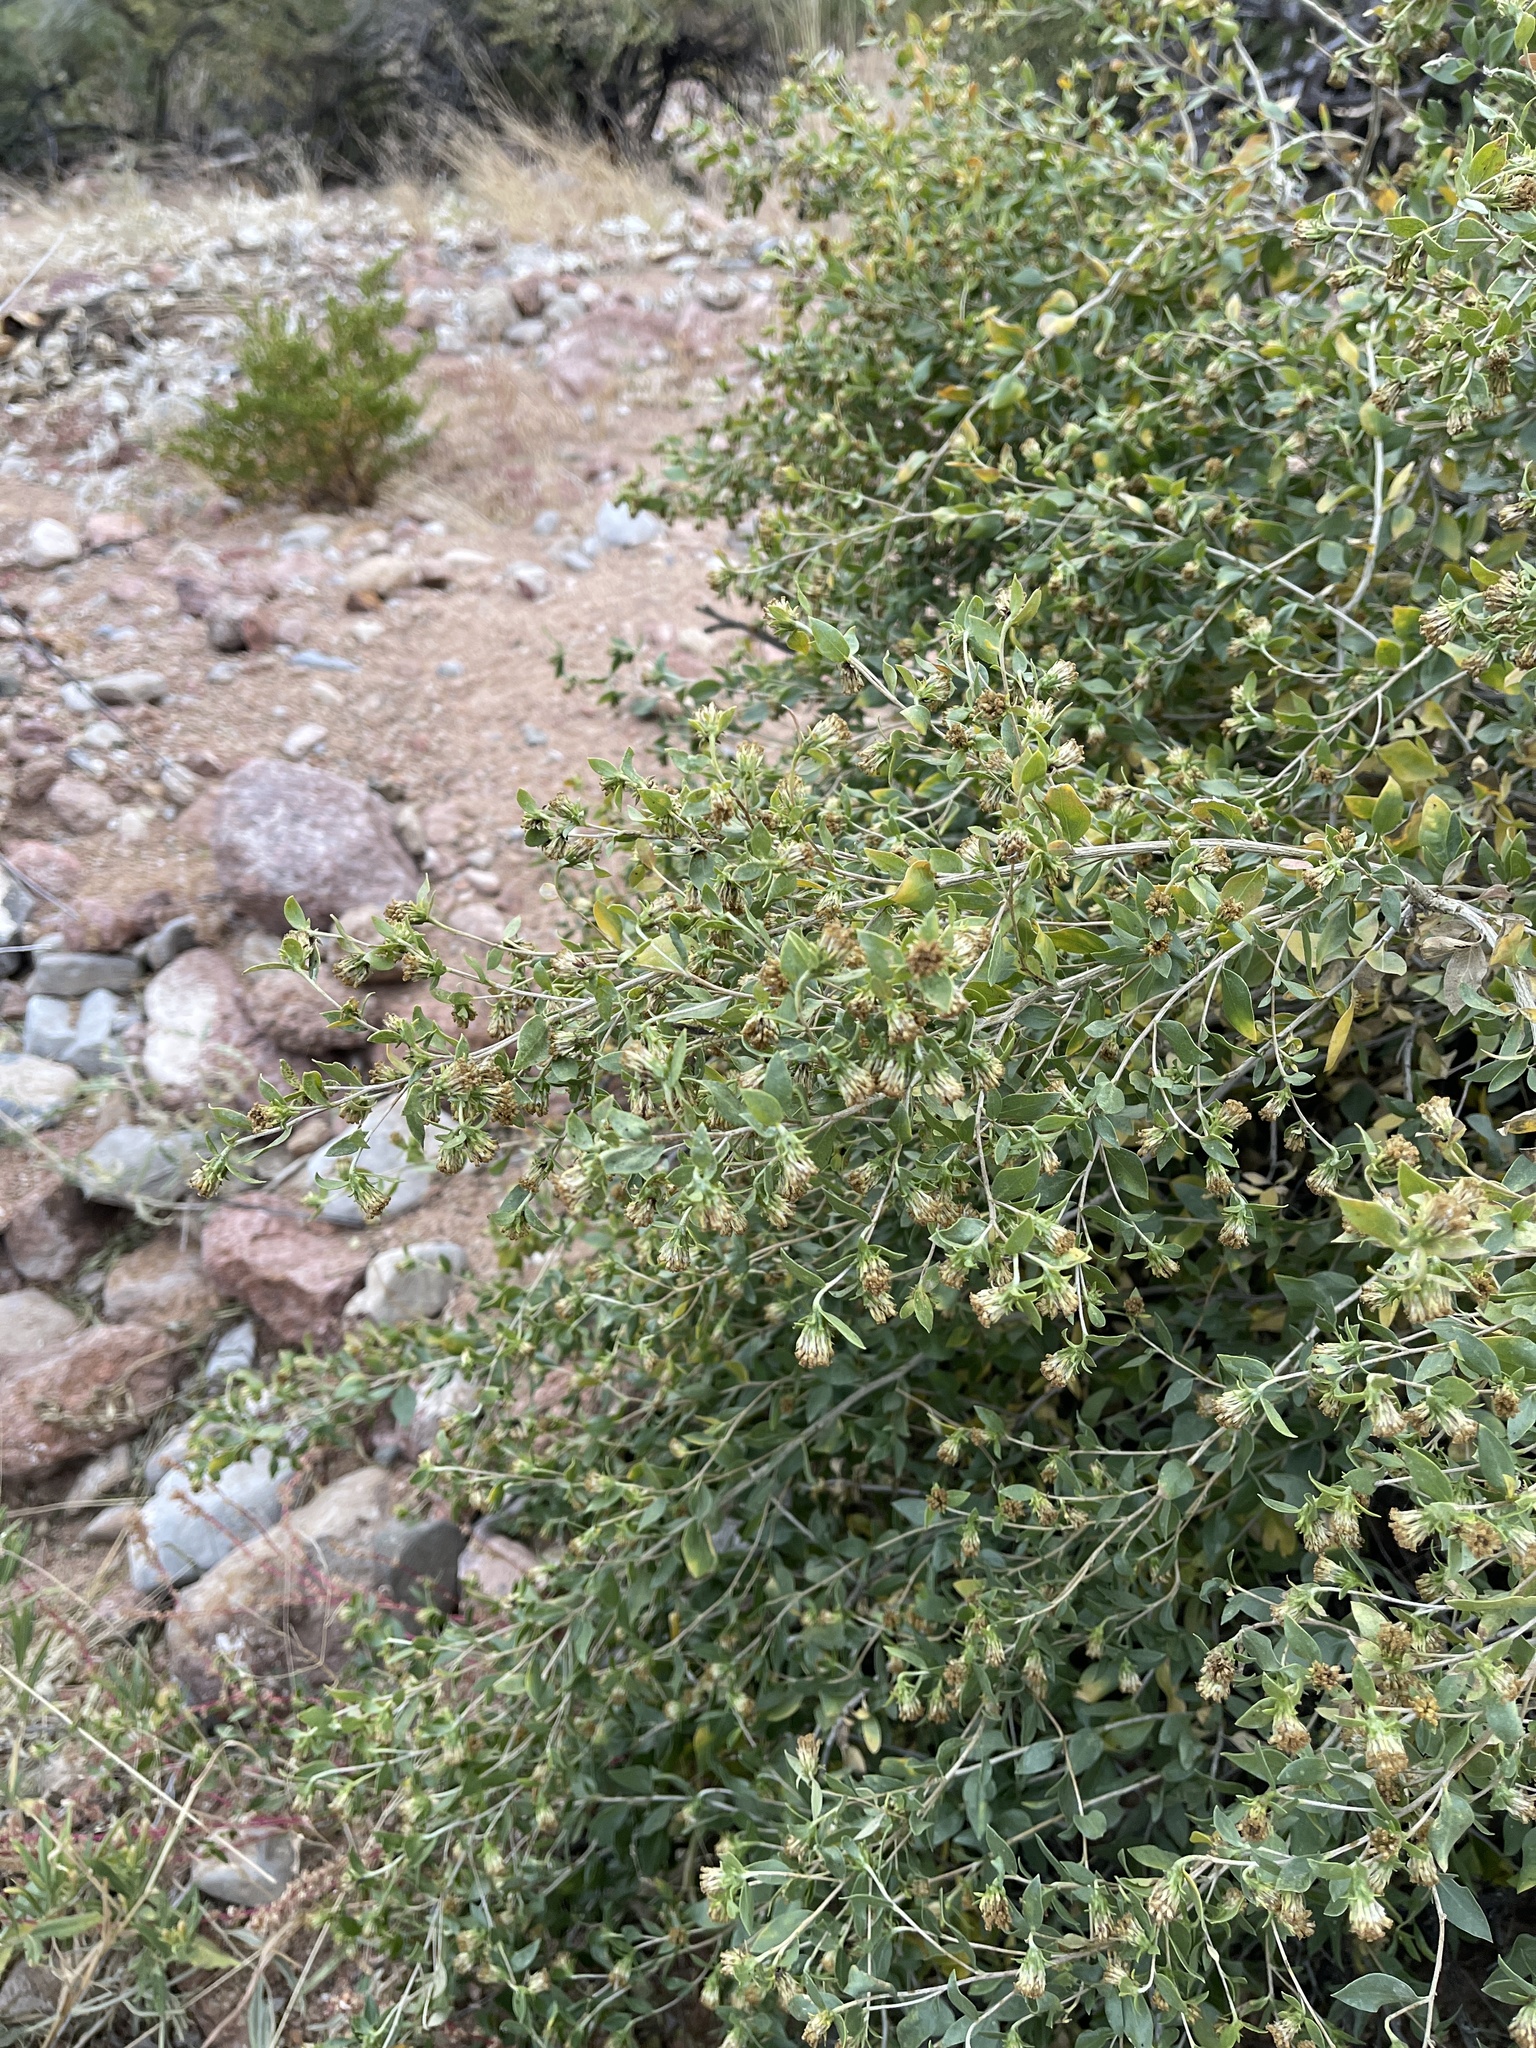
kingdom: Plantae
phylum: Tracheophyta
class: Magnoliopsida
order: Asterales
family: Asteraceae
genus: Flourensia
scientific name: Flourensia cernua
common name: Varnishbush
